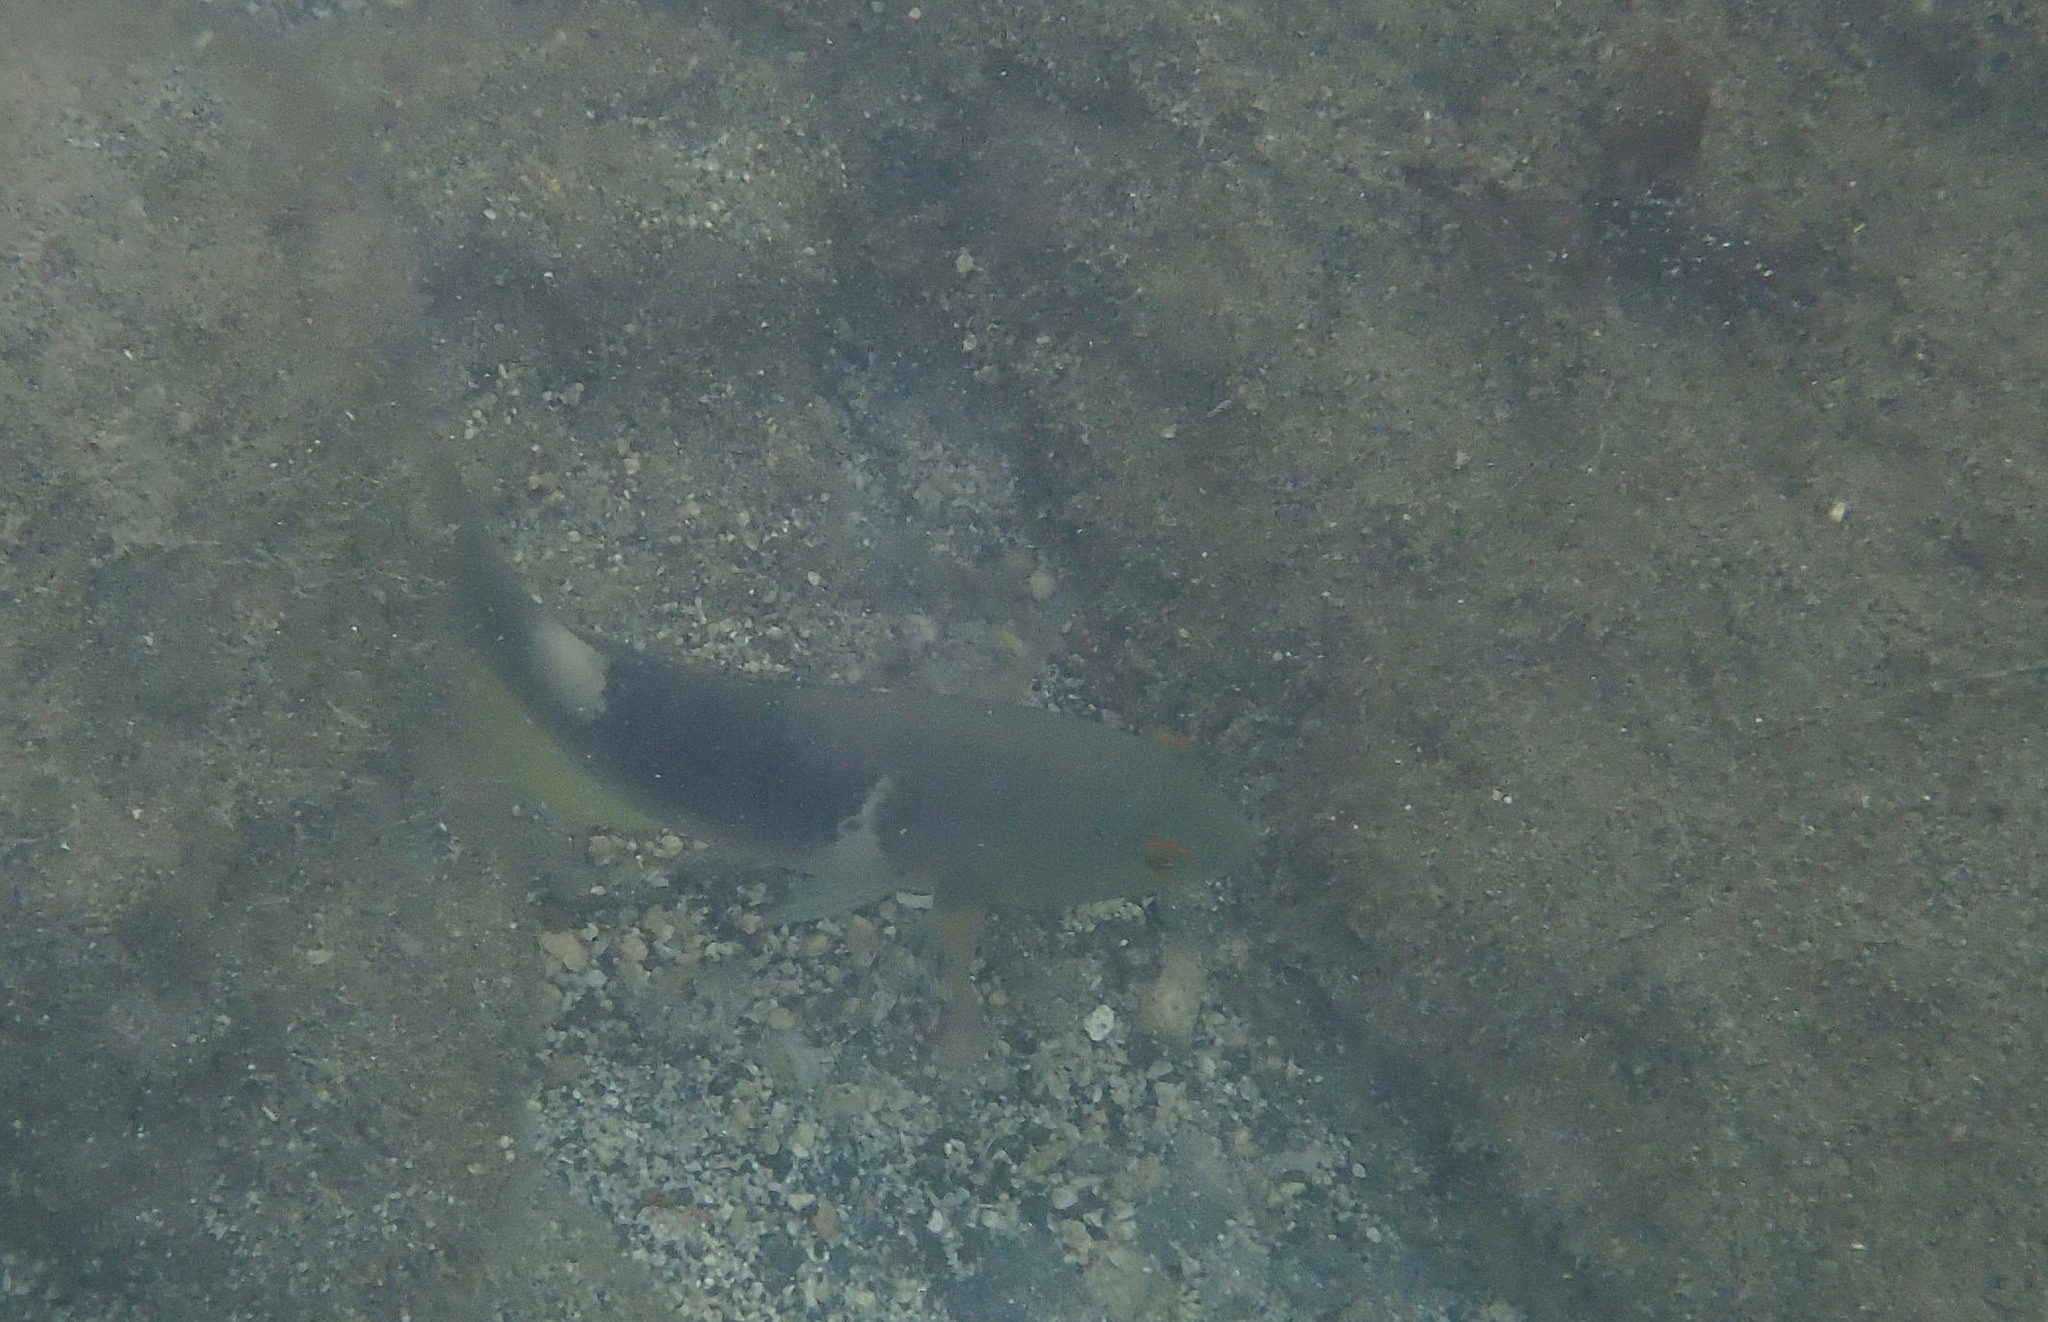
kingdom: Animalia
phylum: Chordata
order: Perciformes
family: Labridae
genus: Choerodon
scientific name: Choerodon anchorago
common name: Anchor tuskfish
